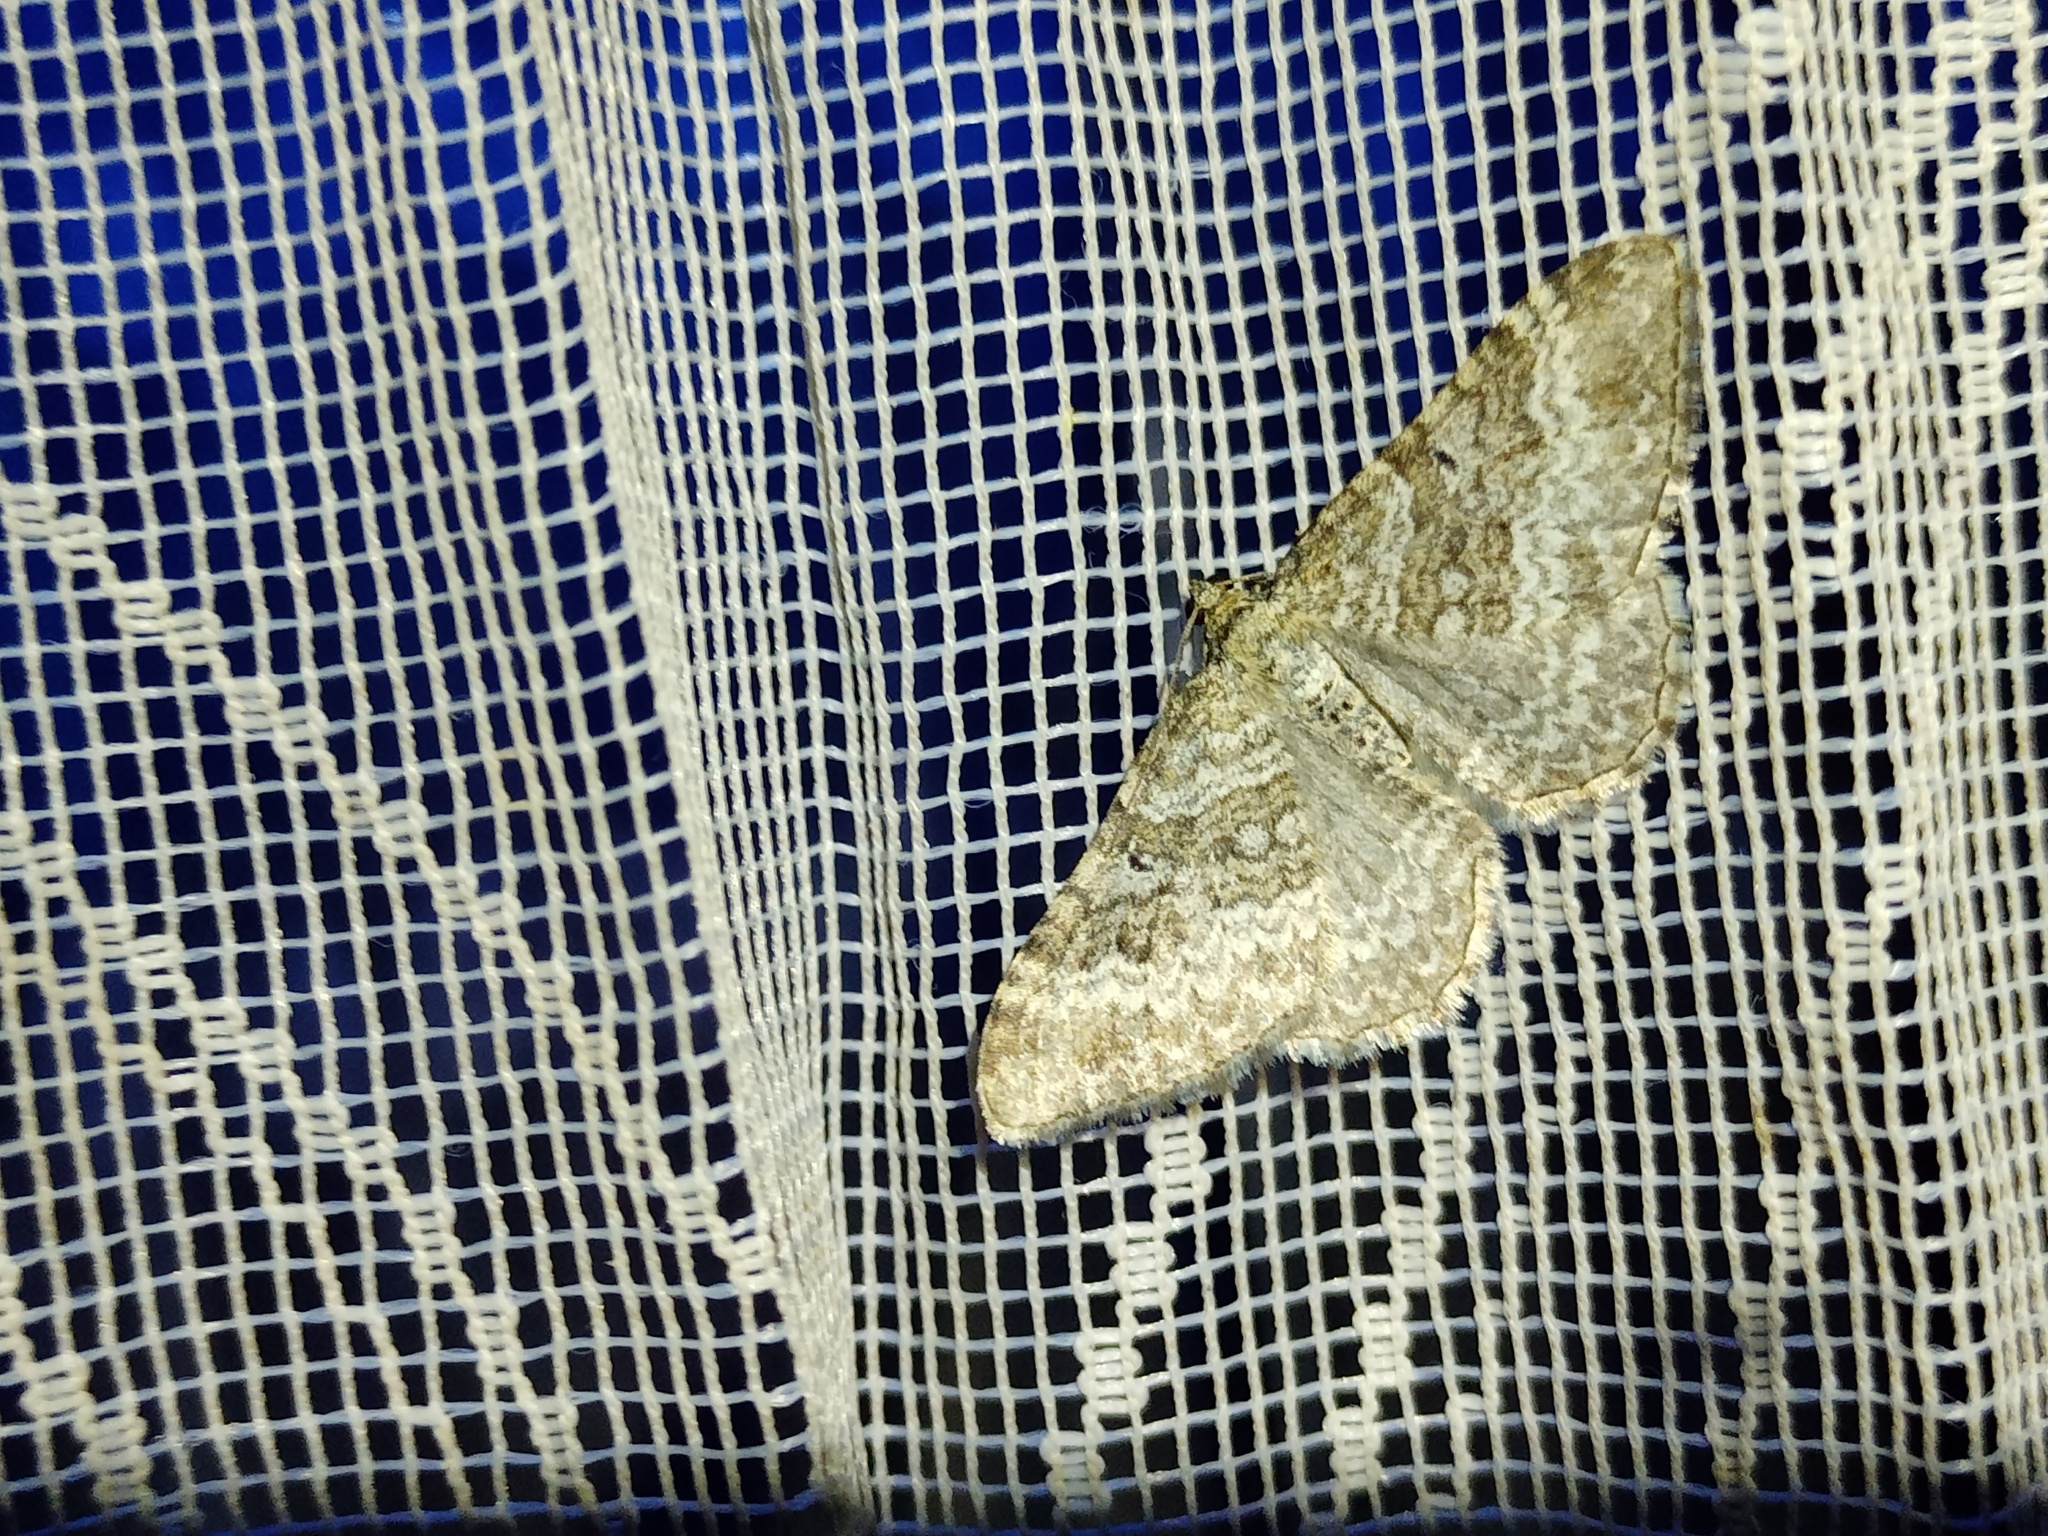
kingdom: Animalia
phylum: Arthropoda
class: Insecta
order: Lepidoptera
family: Geometridae
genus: Euphyia
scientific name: Euphyia molluginata
